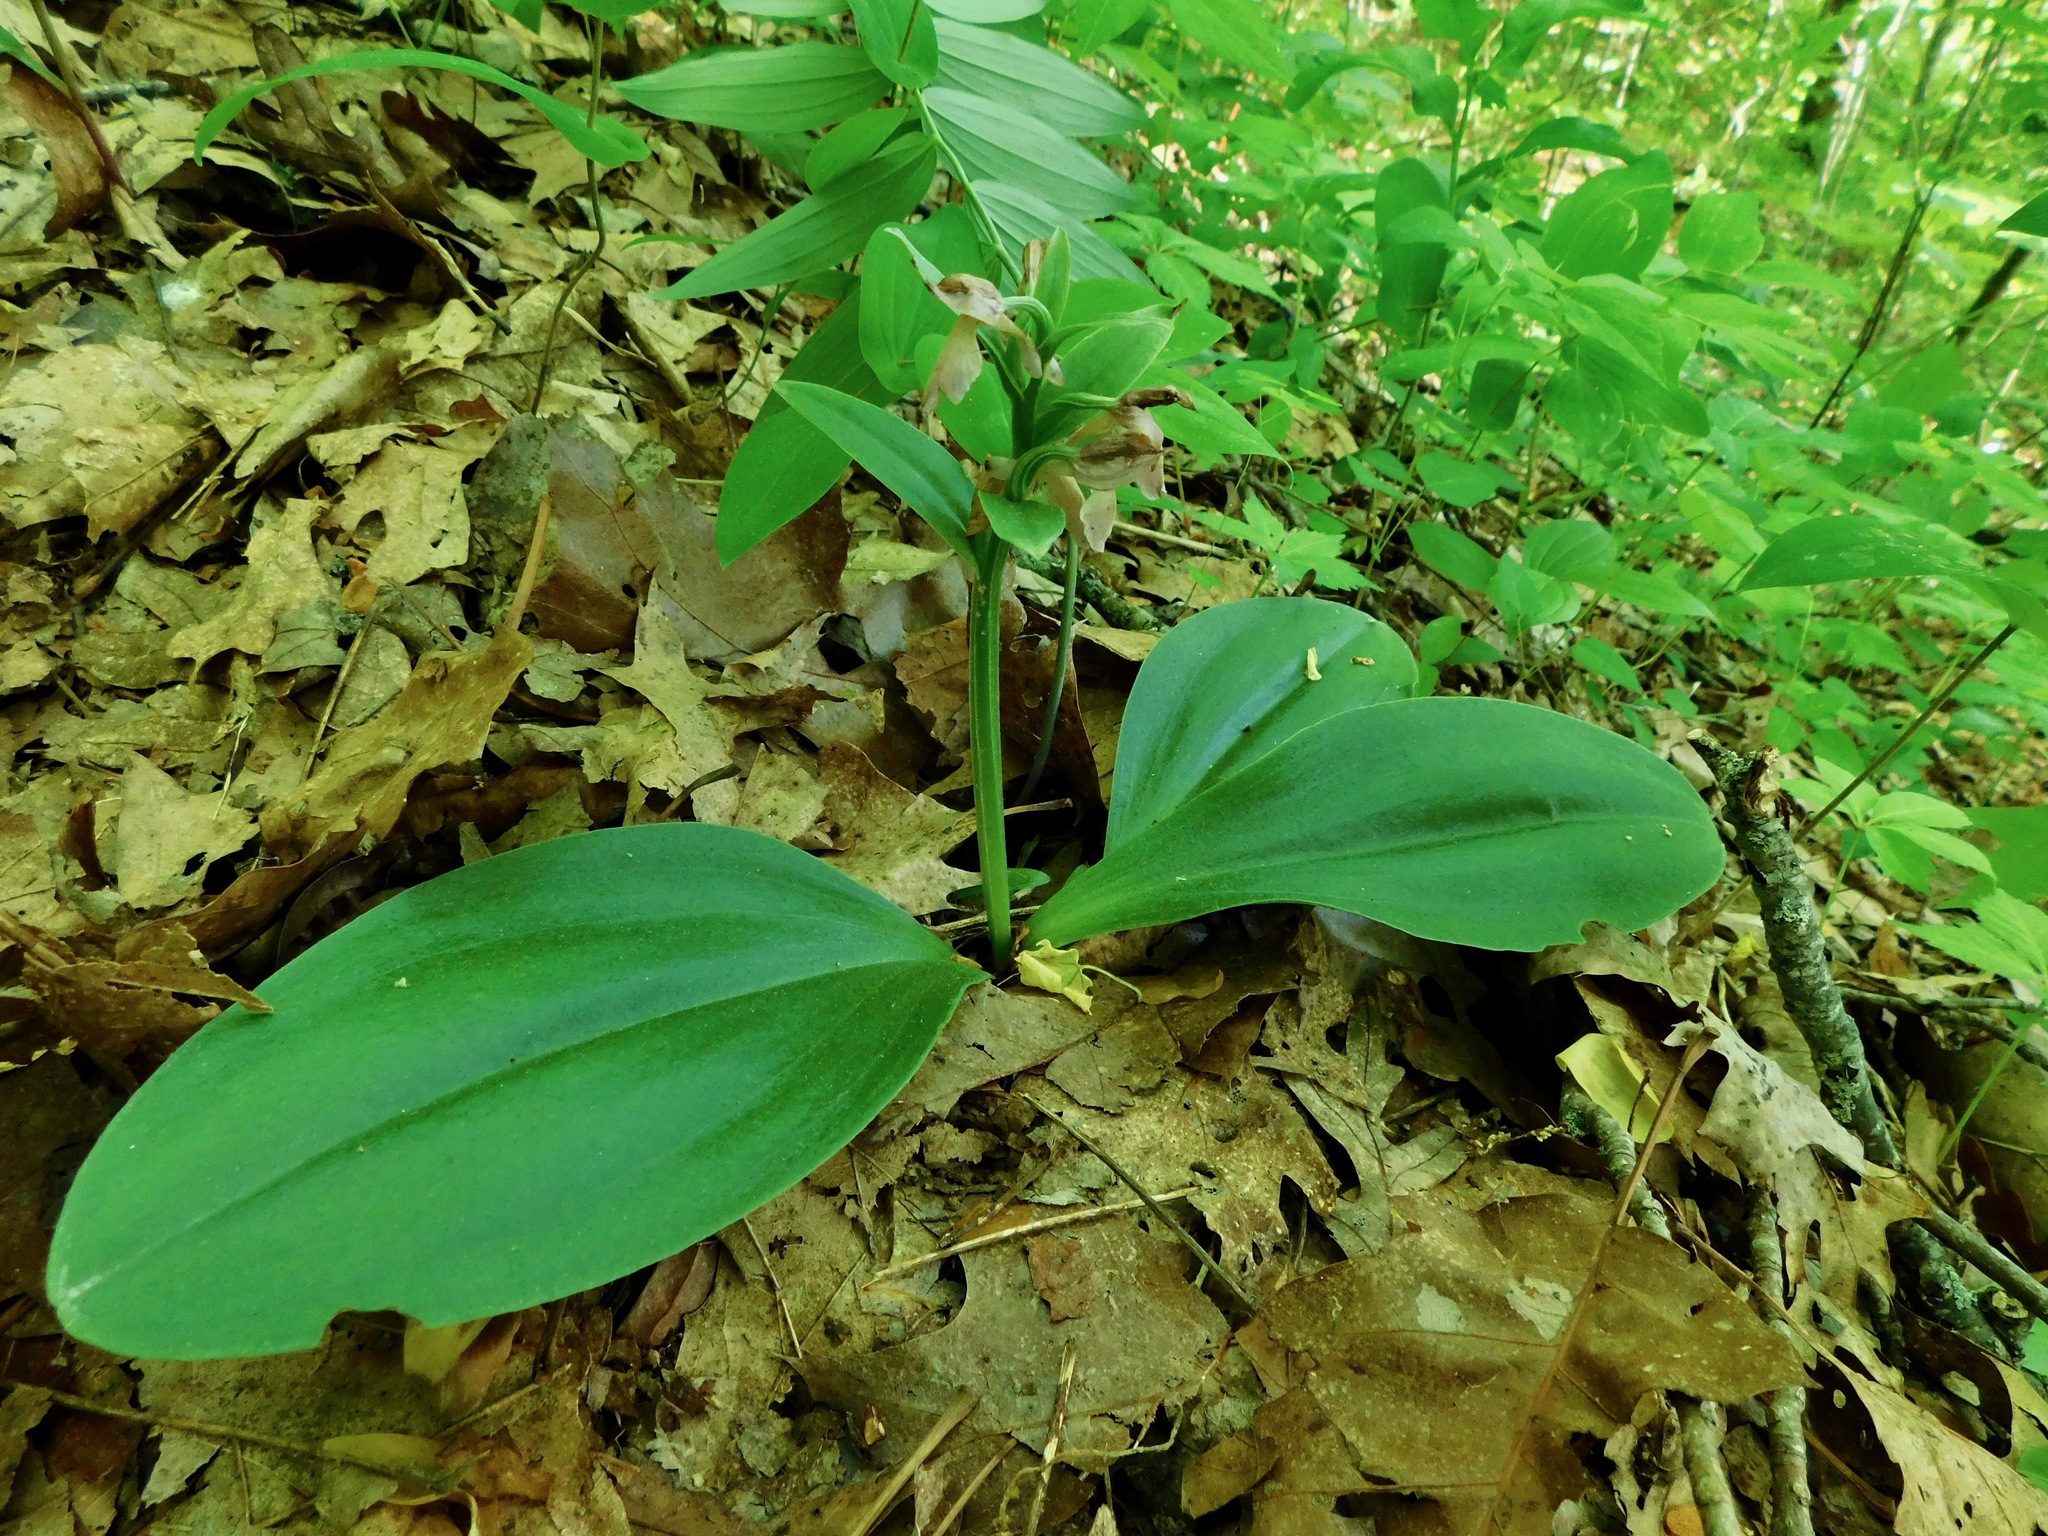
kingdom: Plantae
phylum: Tracheophyta
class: Liliopsida
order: Asparagales
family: Orchidaceae
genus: Galearis
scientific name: Galearis spectabilis
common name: Purple-hooded orchis
